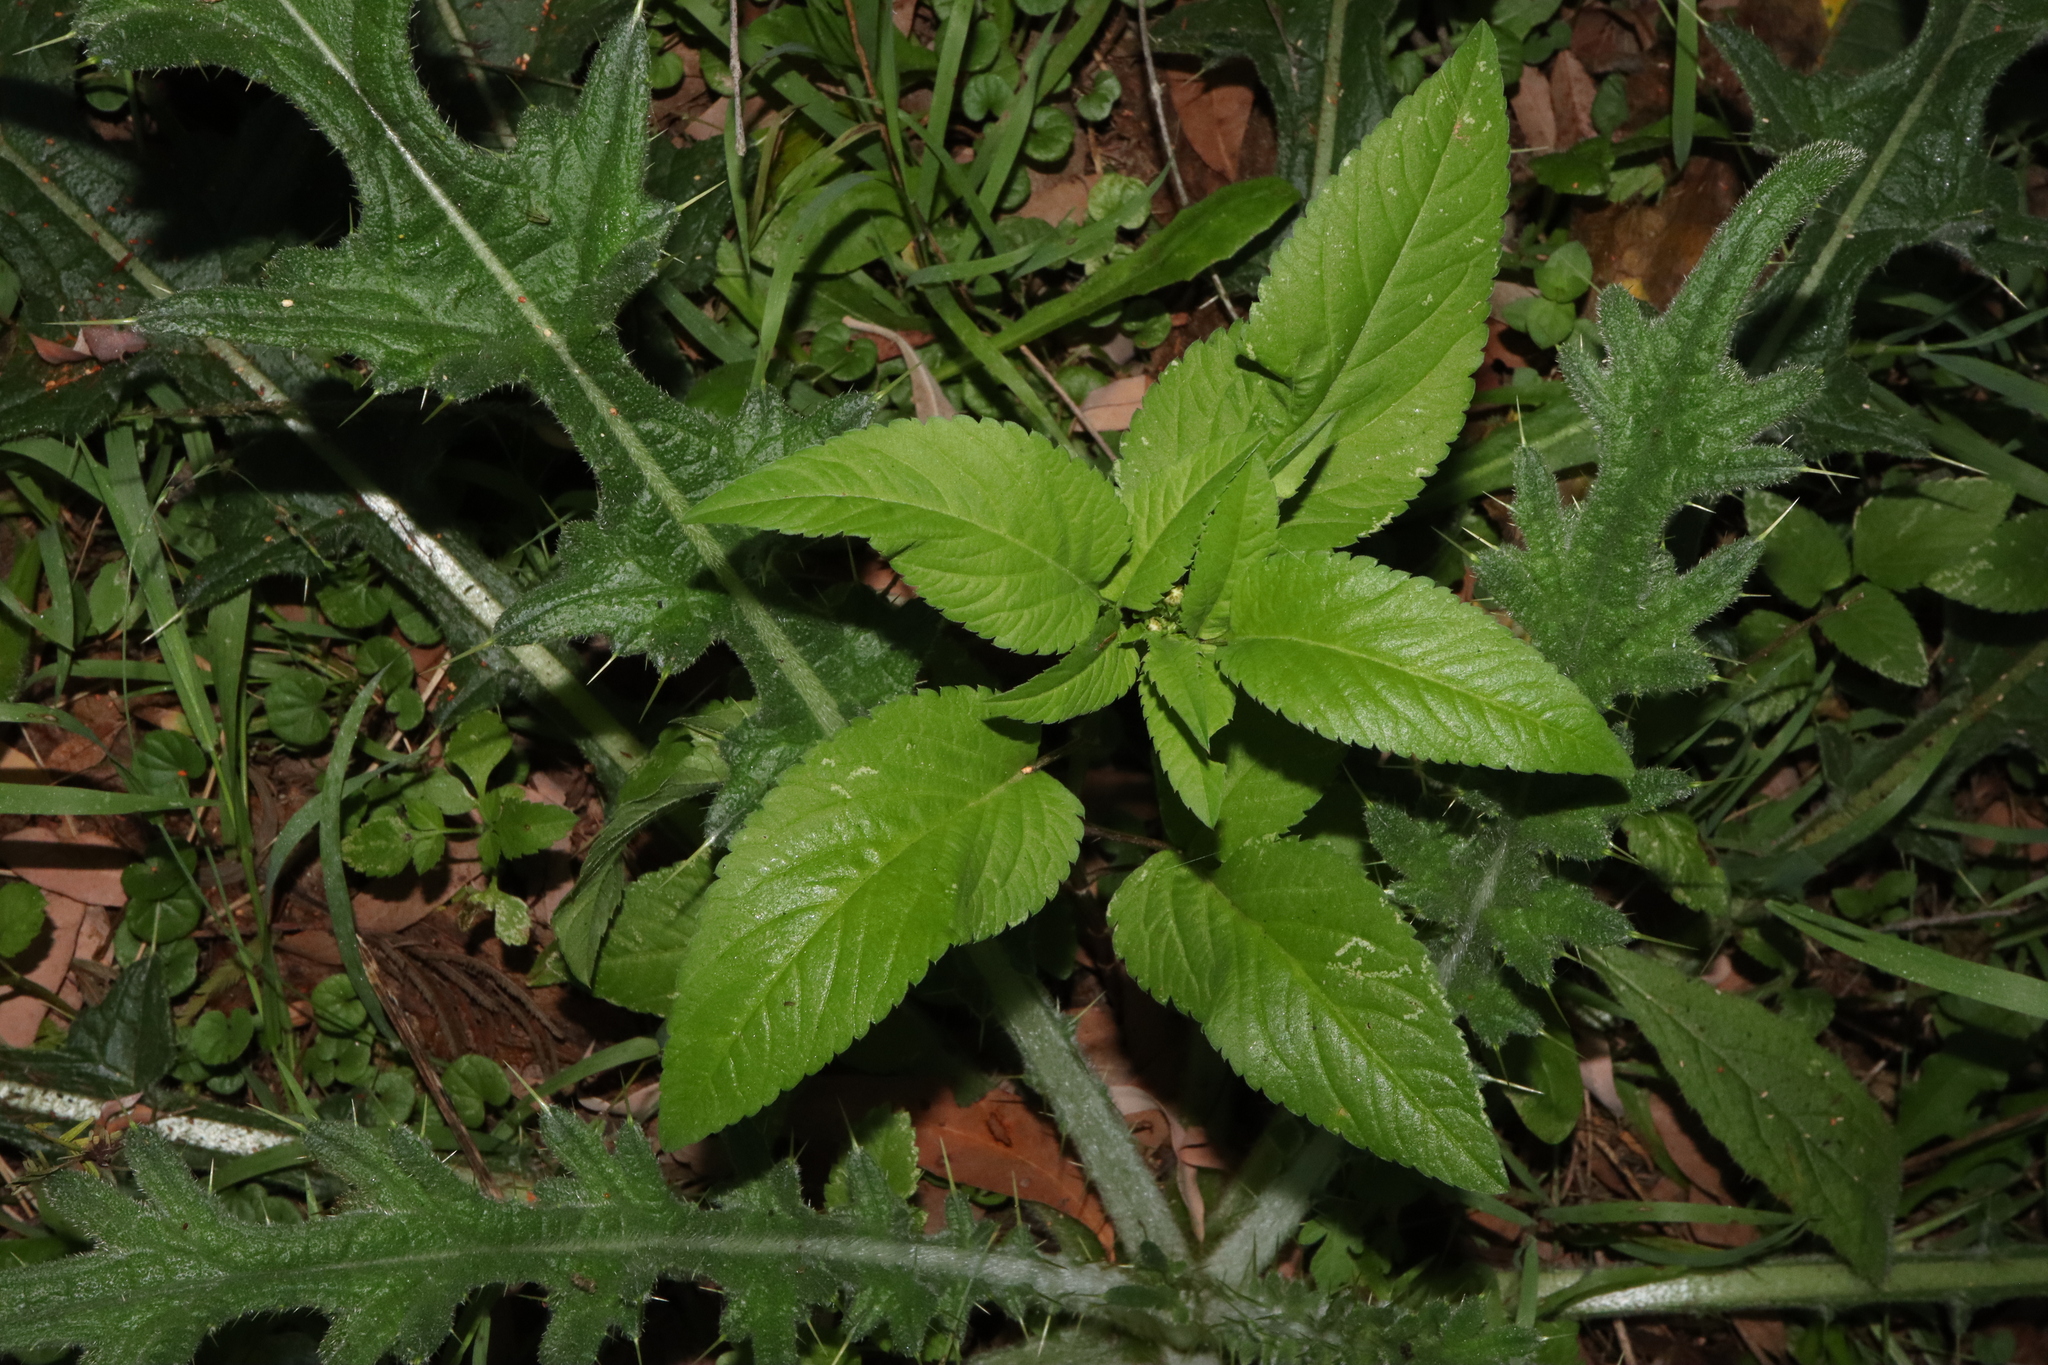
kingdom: Plantae
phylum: Tracheophyta
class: Magnoliopsida
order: Asterales
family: Asteraceae
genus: Bidens
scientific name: Bidens pilosa
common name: Black-jack
